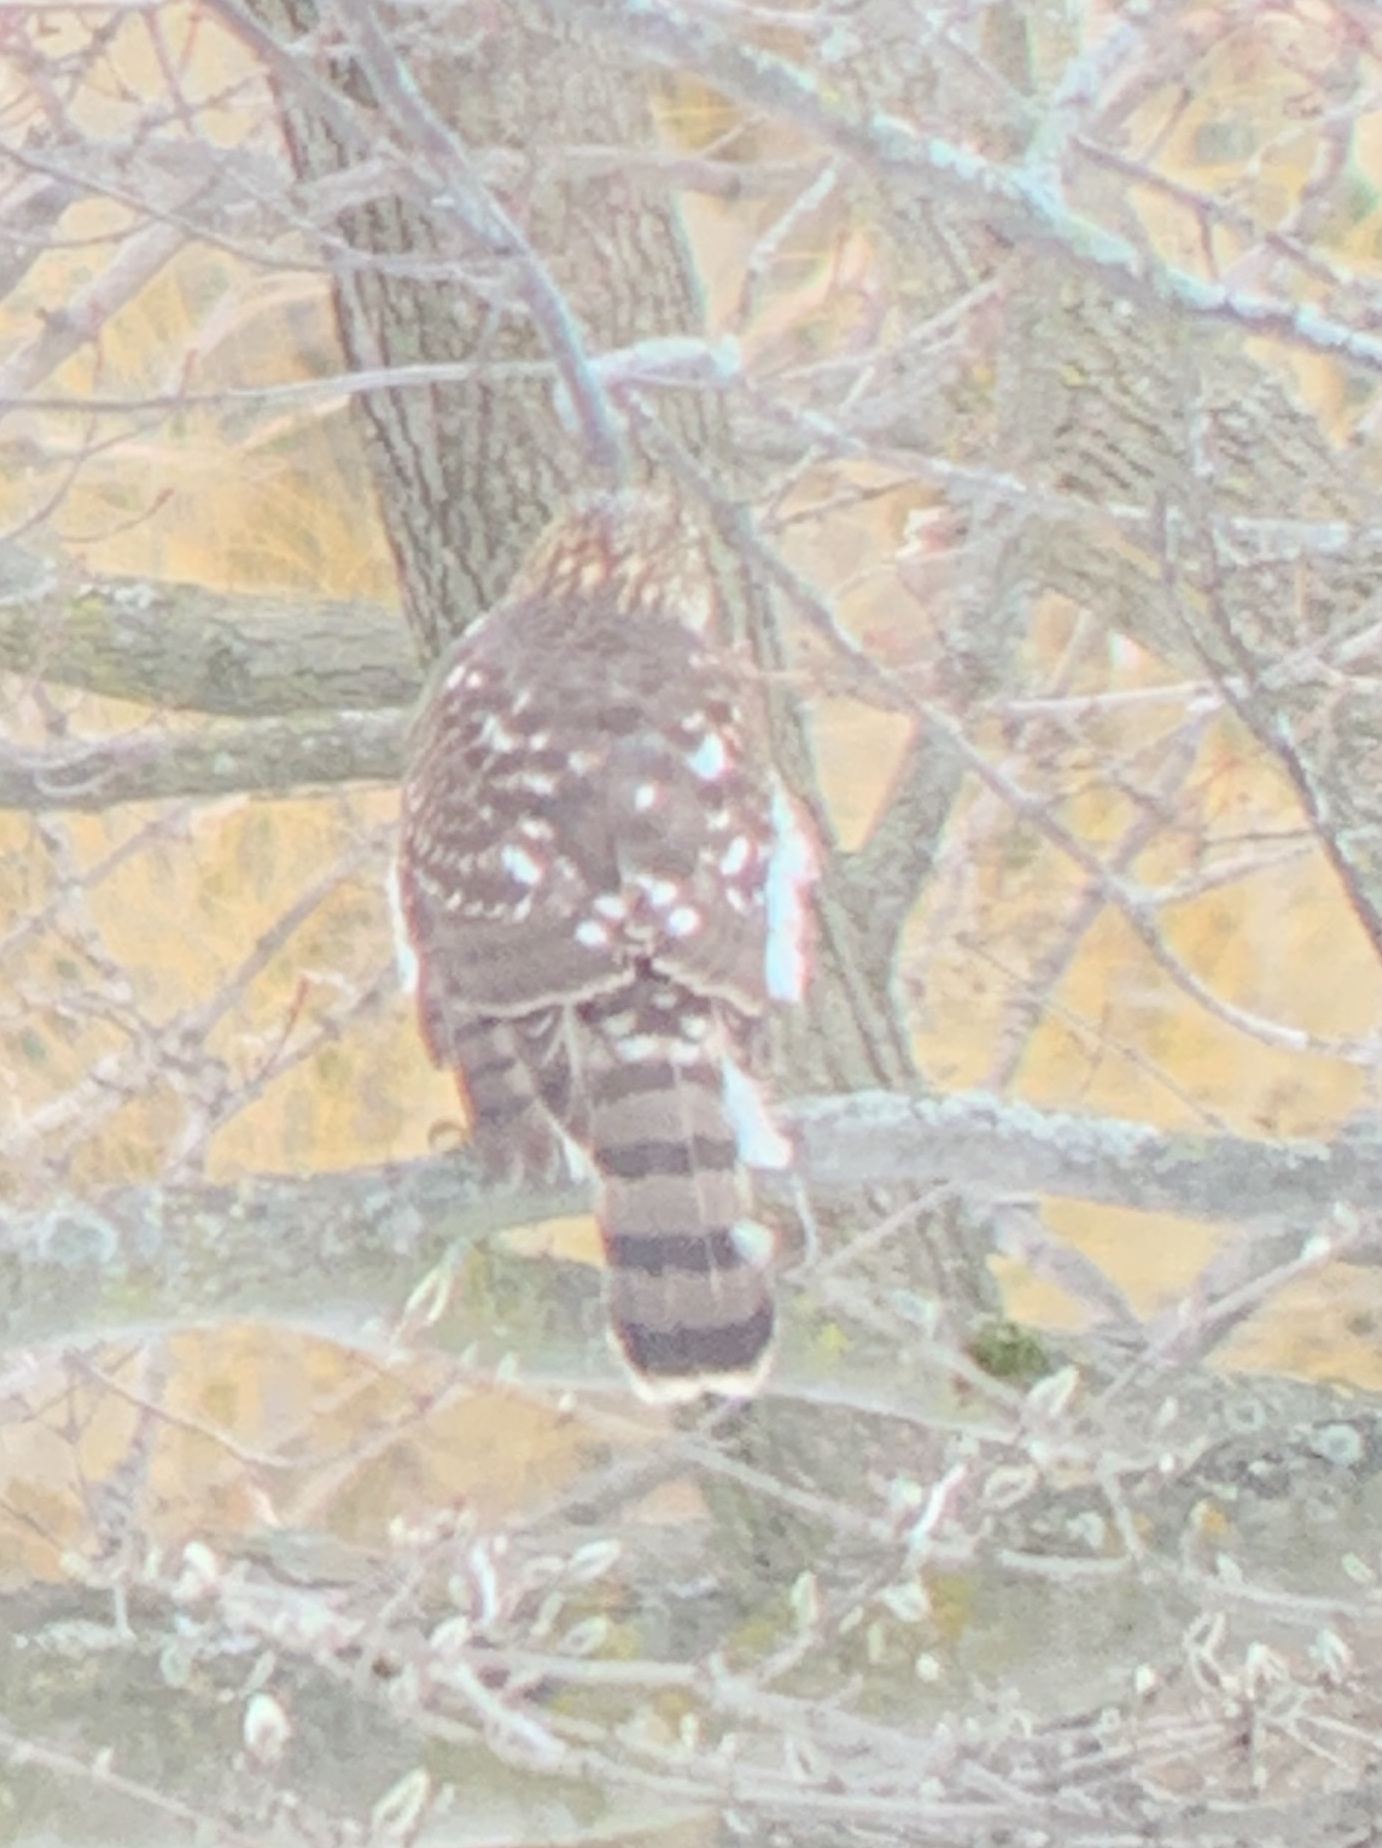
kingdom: Animalia
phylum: Chordata
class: Aves
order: Accipitriformes
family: Accipitridae
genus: Accipiter
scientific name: Accipiter cooperii
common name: Cooper's hawk
